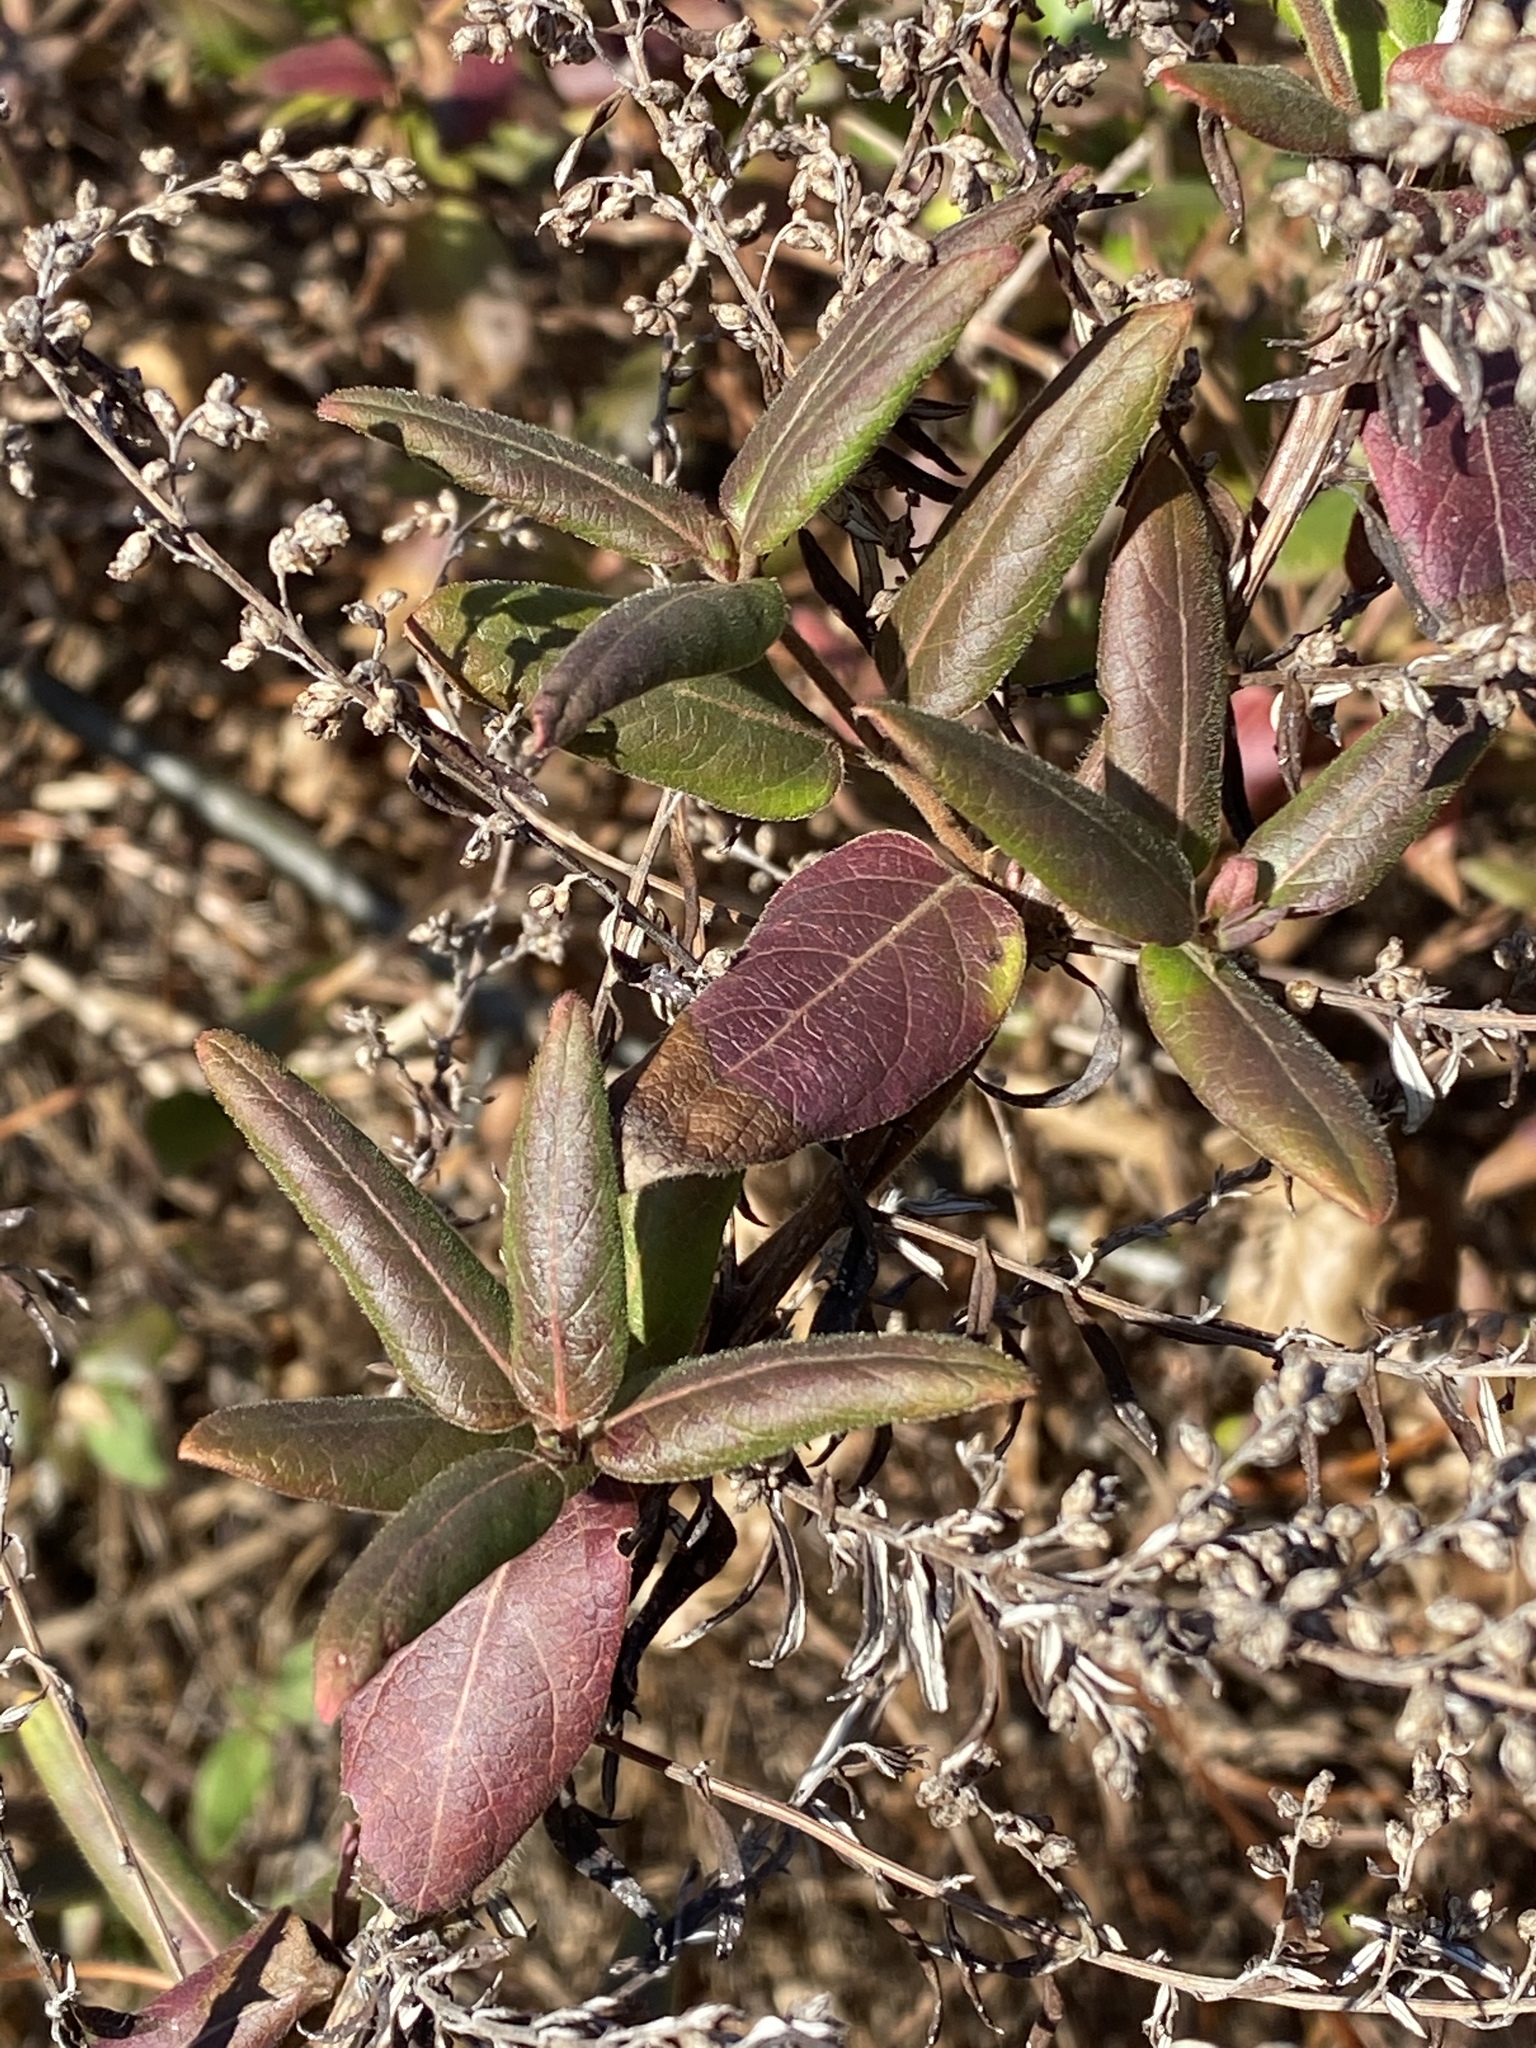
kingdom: Plantae
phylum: Tracheophyta
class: Magnoliopsida
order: Dipsacales
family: Caprifoliaceae
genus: Lonicera
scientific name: Lonicera japonica
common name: Japanese honeysuckle
